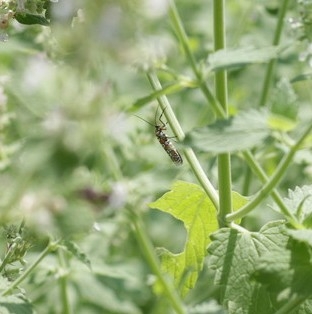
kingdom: Animalia
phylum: Arthropoda
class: Insecta
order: Lepidoptera
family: Attevidae
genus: Atteva
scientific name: Atteva punctella
